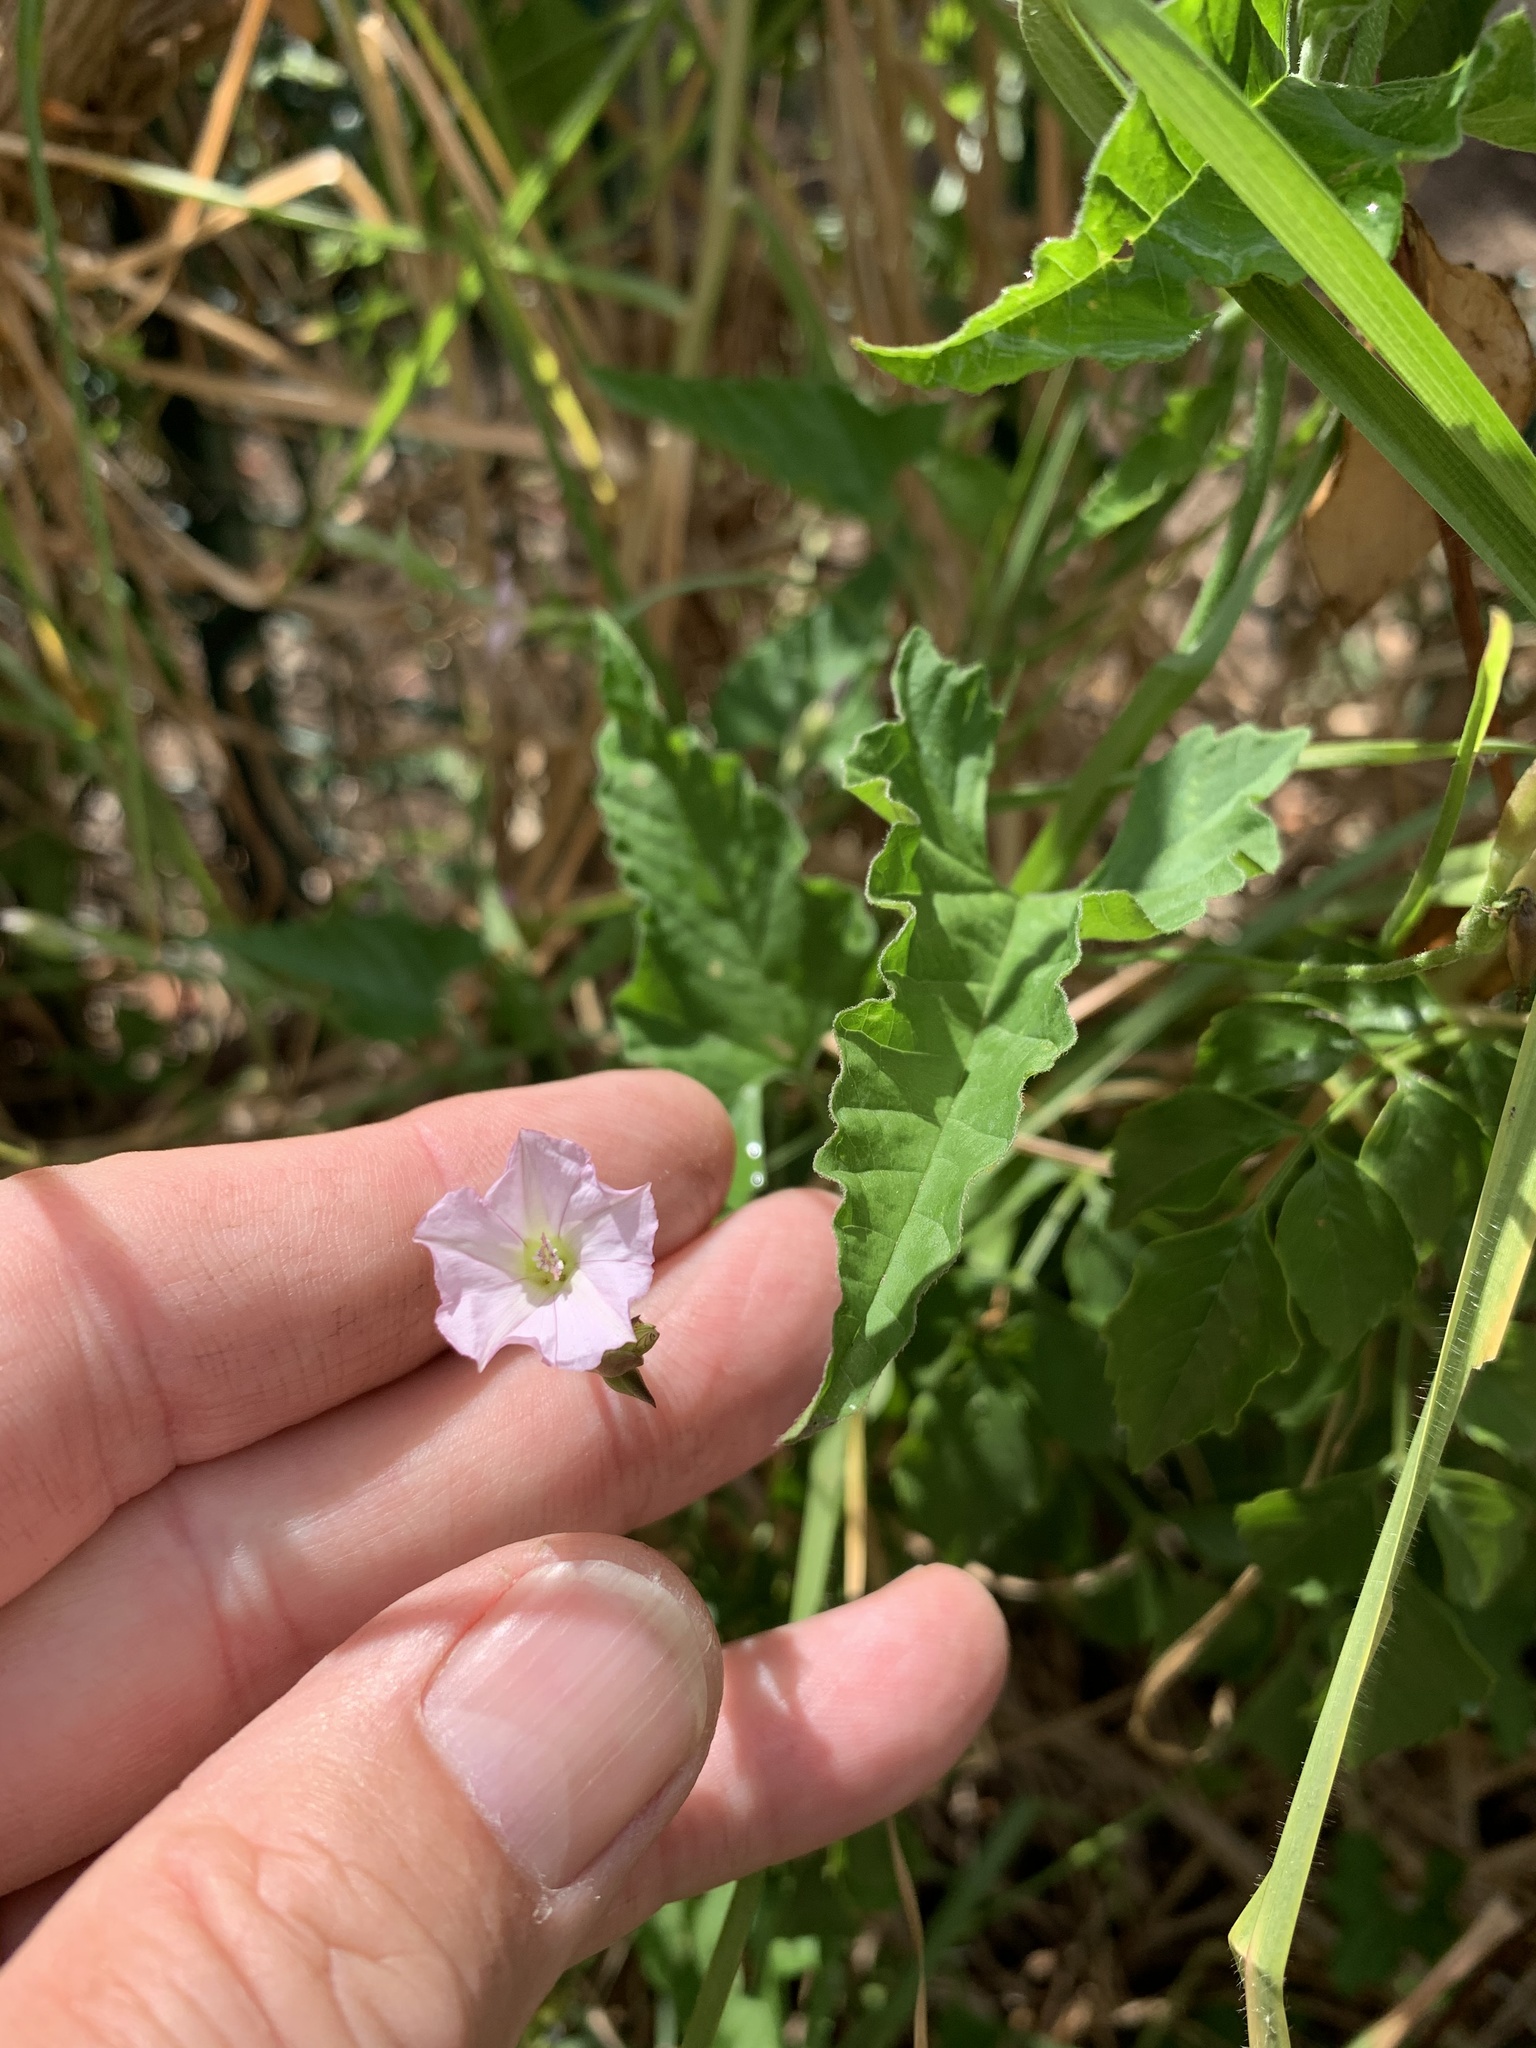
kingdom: Plantae
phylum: Tracheophyta
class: Magnoliopsida
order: Solanales
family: Convolvulaceae
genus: Convolvulus
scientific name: Convolvulus farinosus
